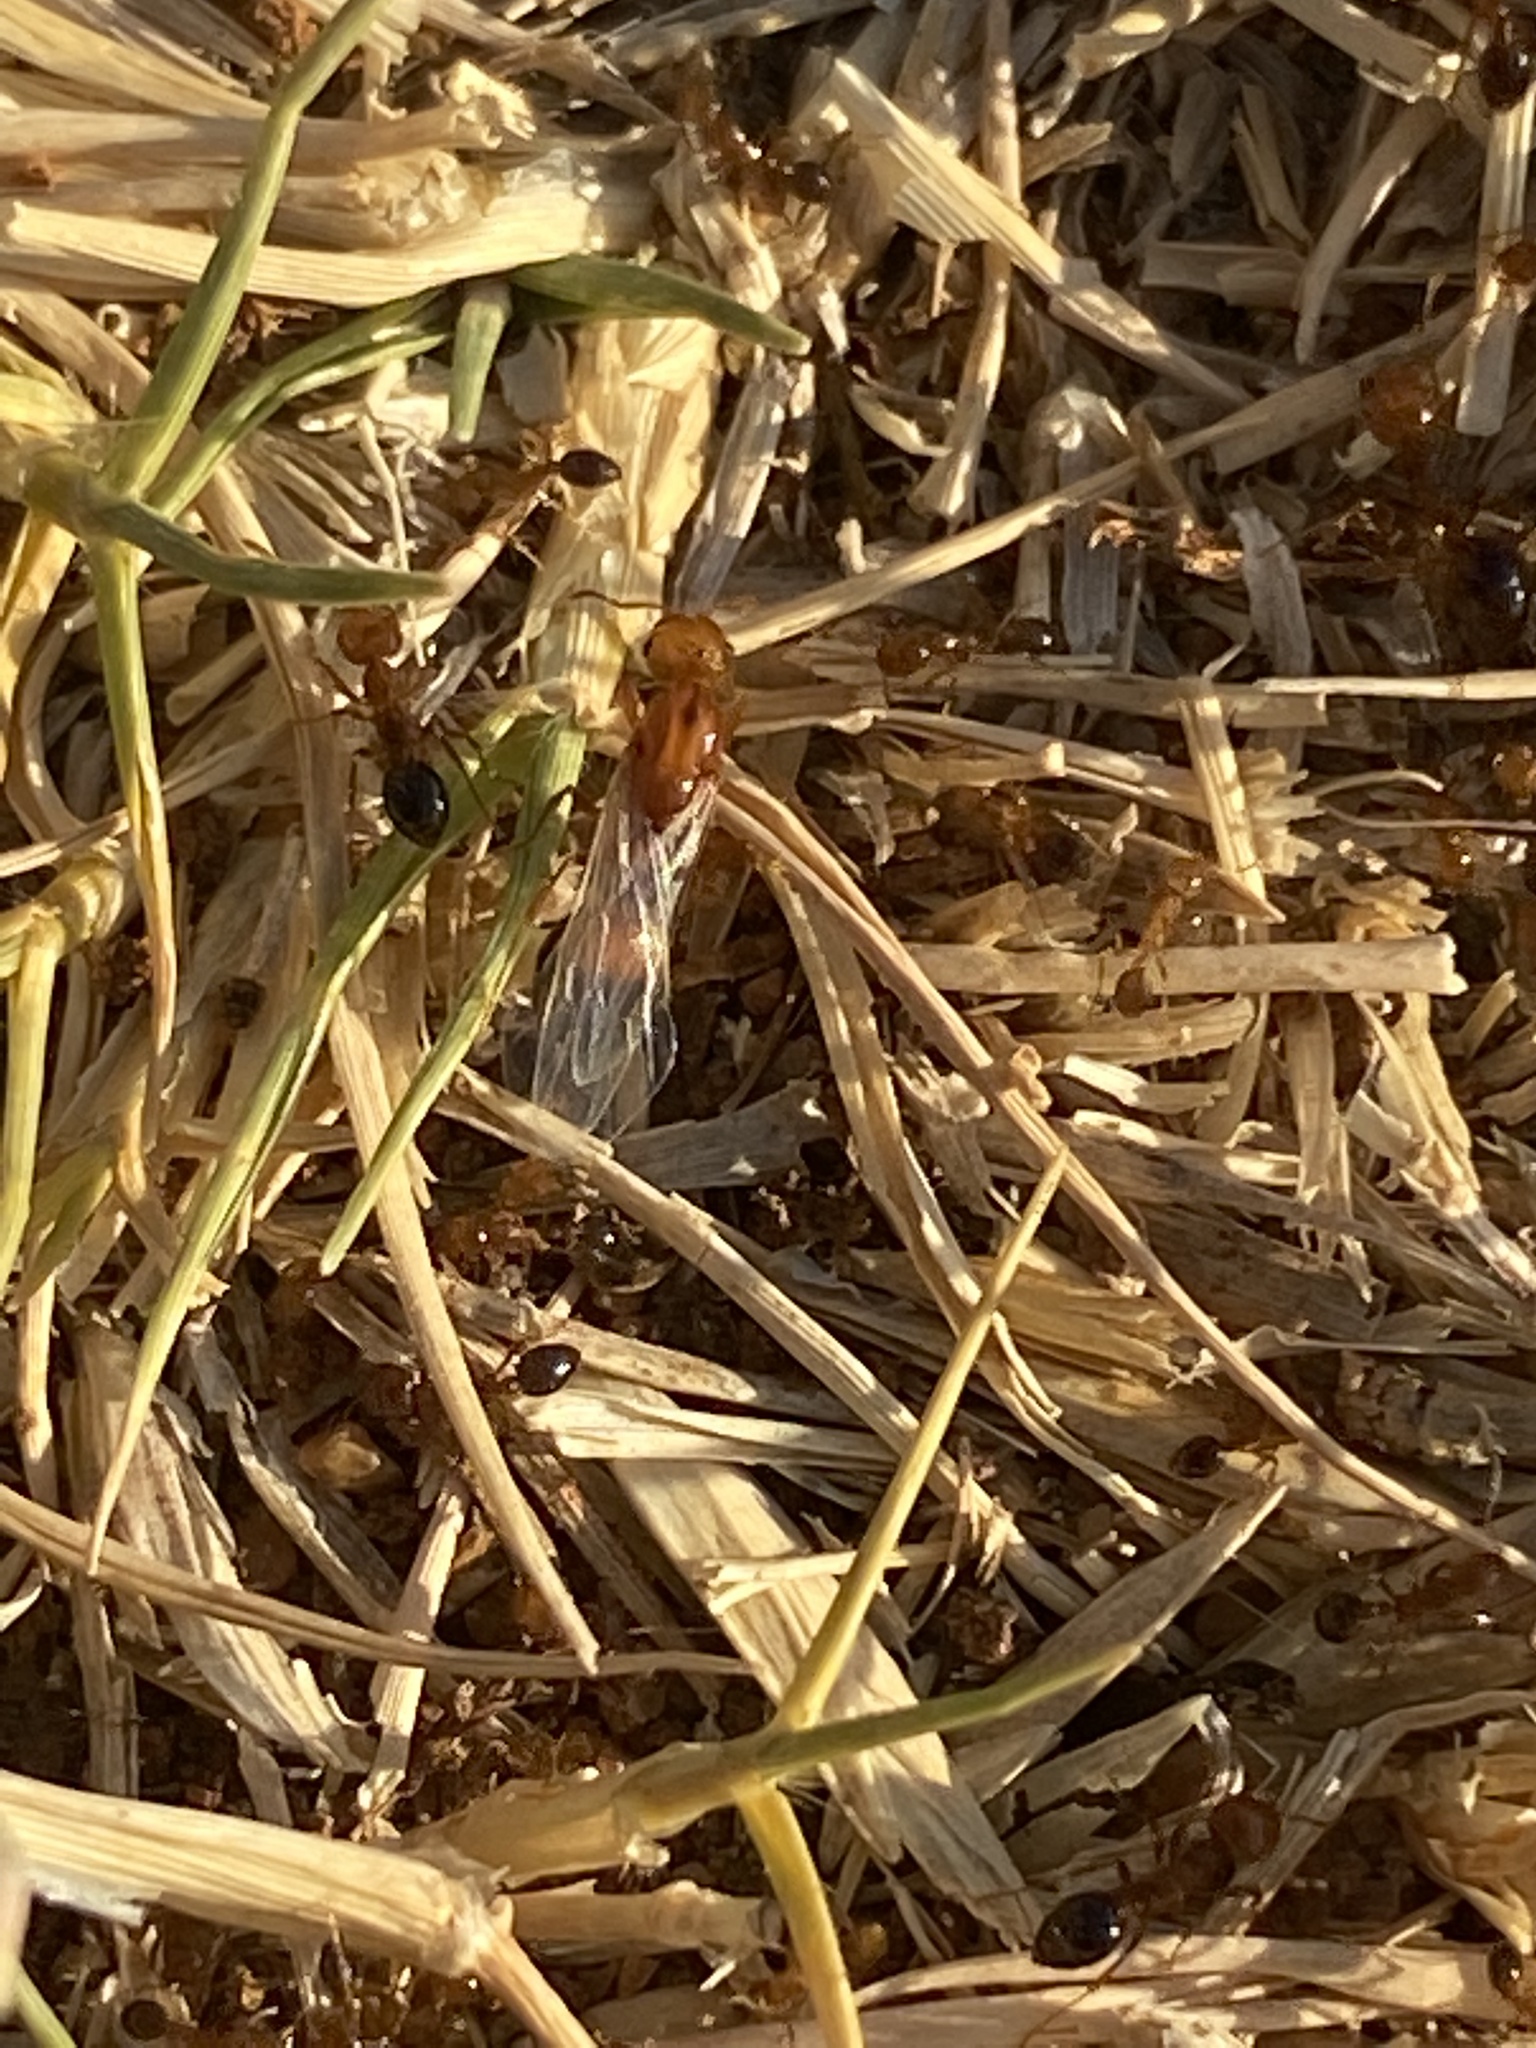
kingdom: Animalia
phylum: Arthropoda
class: Insecta
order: Hymenoptera
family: Formicidae
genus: Solenopsis
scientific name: Solenopsis invicta
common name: Red imported fire ant
